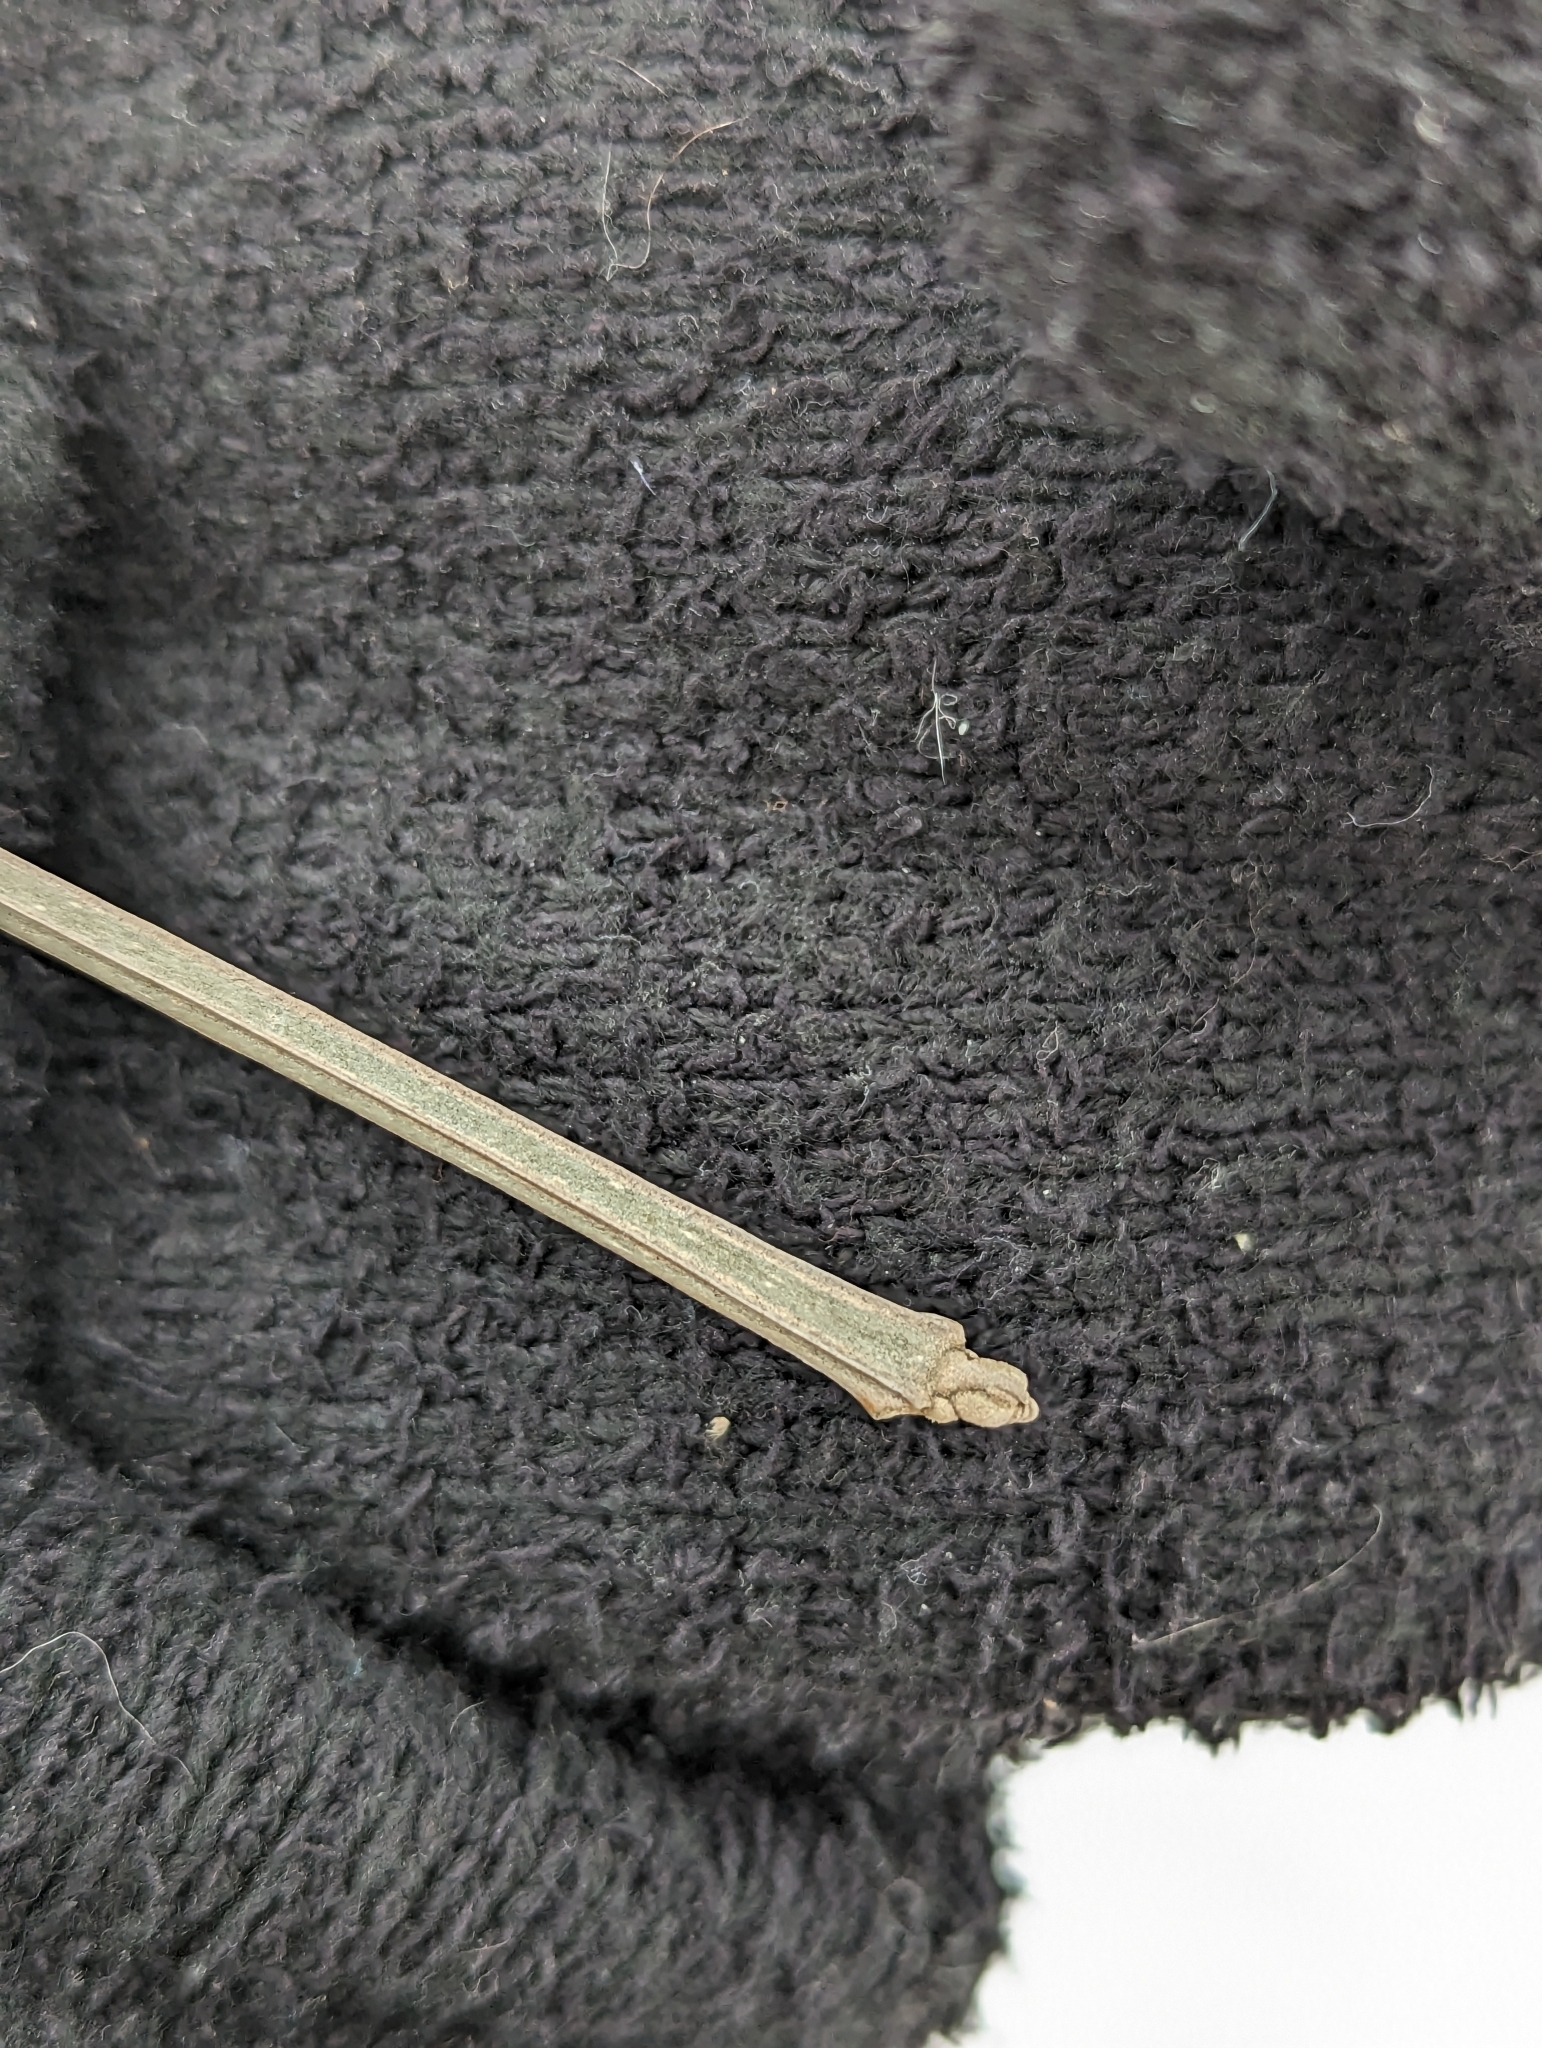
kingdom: Plantae
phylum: Tracheophyta
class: Magnoliopsida
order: Lamiales
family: Oleaceae
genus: Fraxinus
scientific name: Fraxinus quadrangulata
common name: Blue ash
